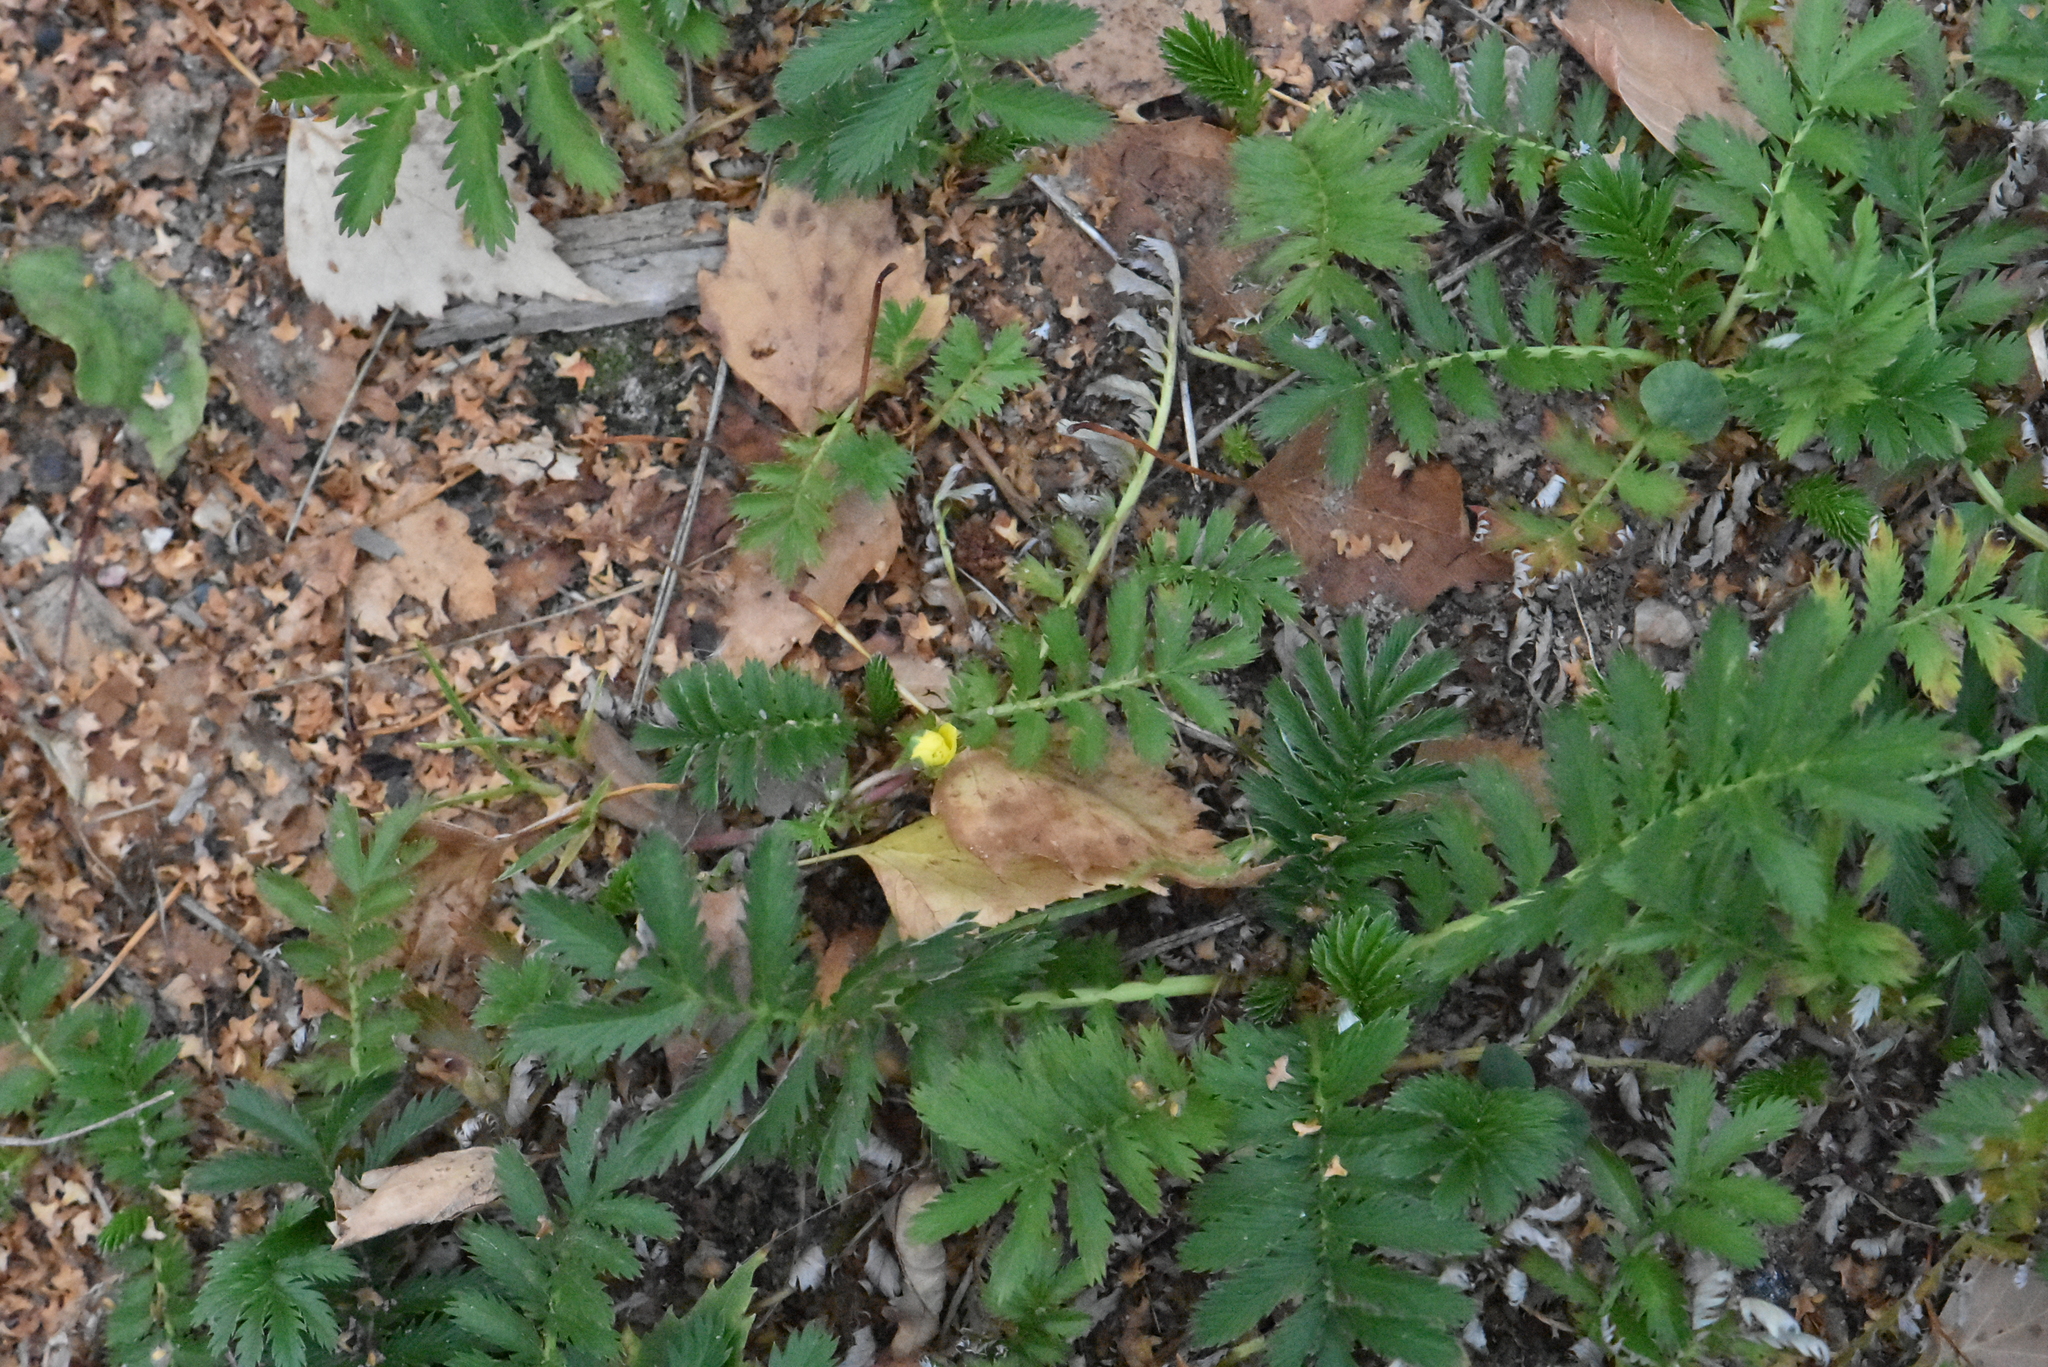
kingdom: Plantae
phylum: Tracheophyta
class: Magnoliopsida
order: Rosales
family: Rosaceae
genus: Argentina
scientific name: Argentina anserina
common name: Common silverweed
